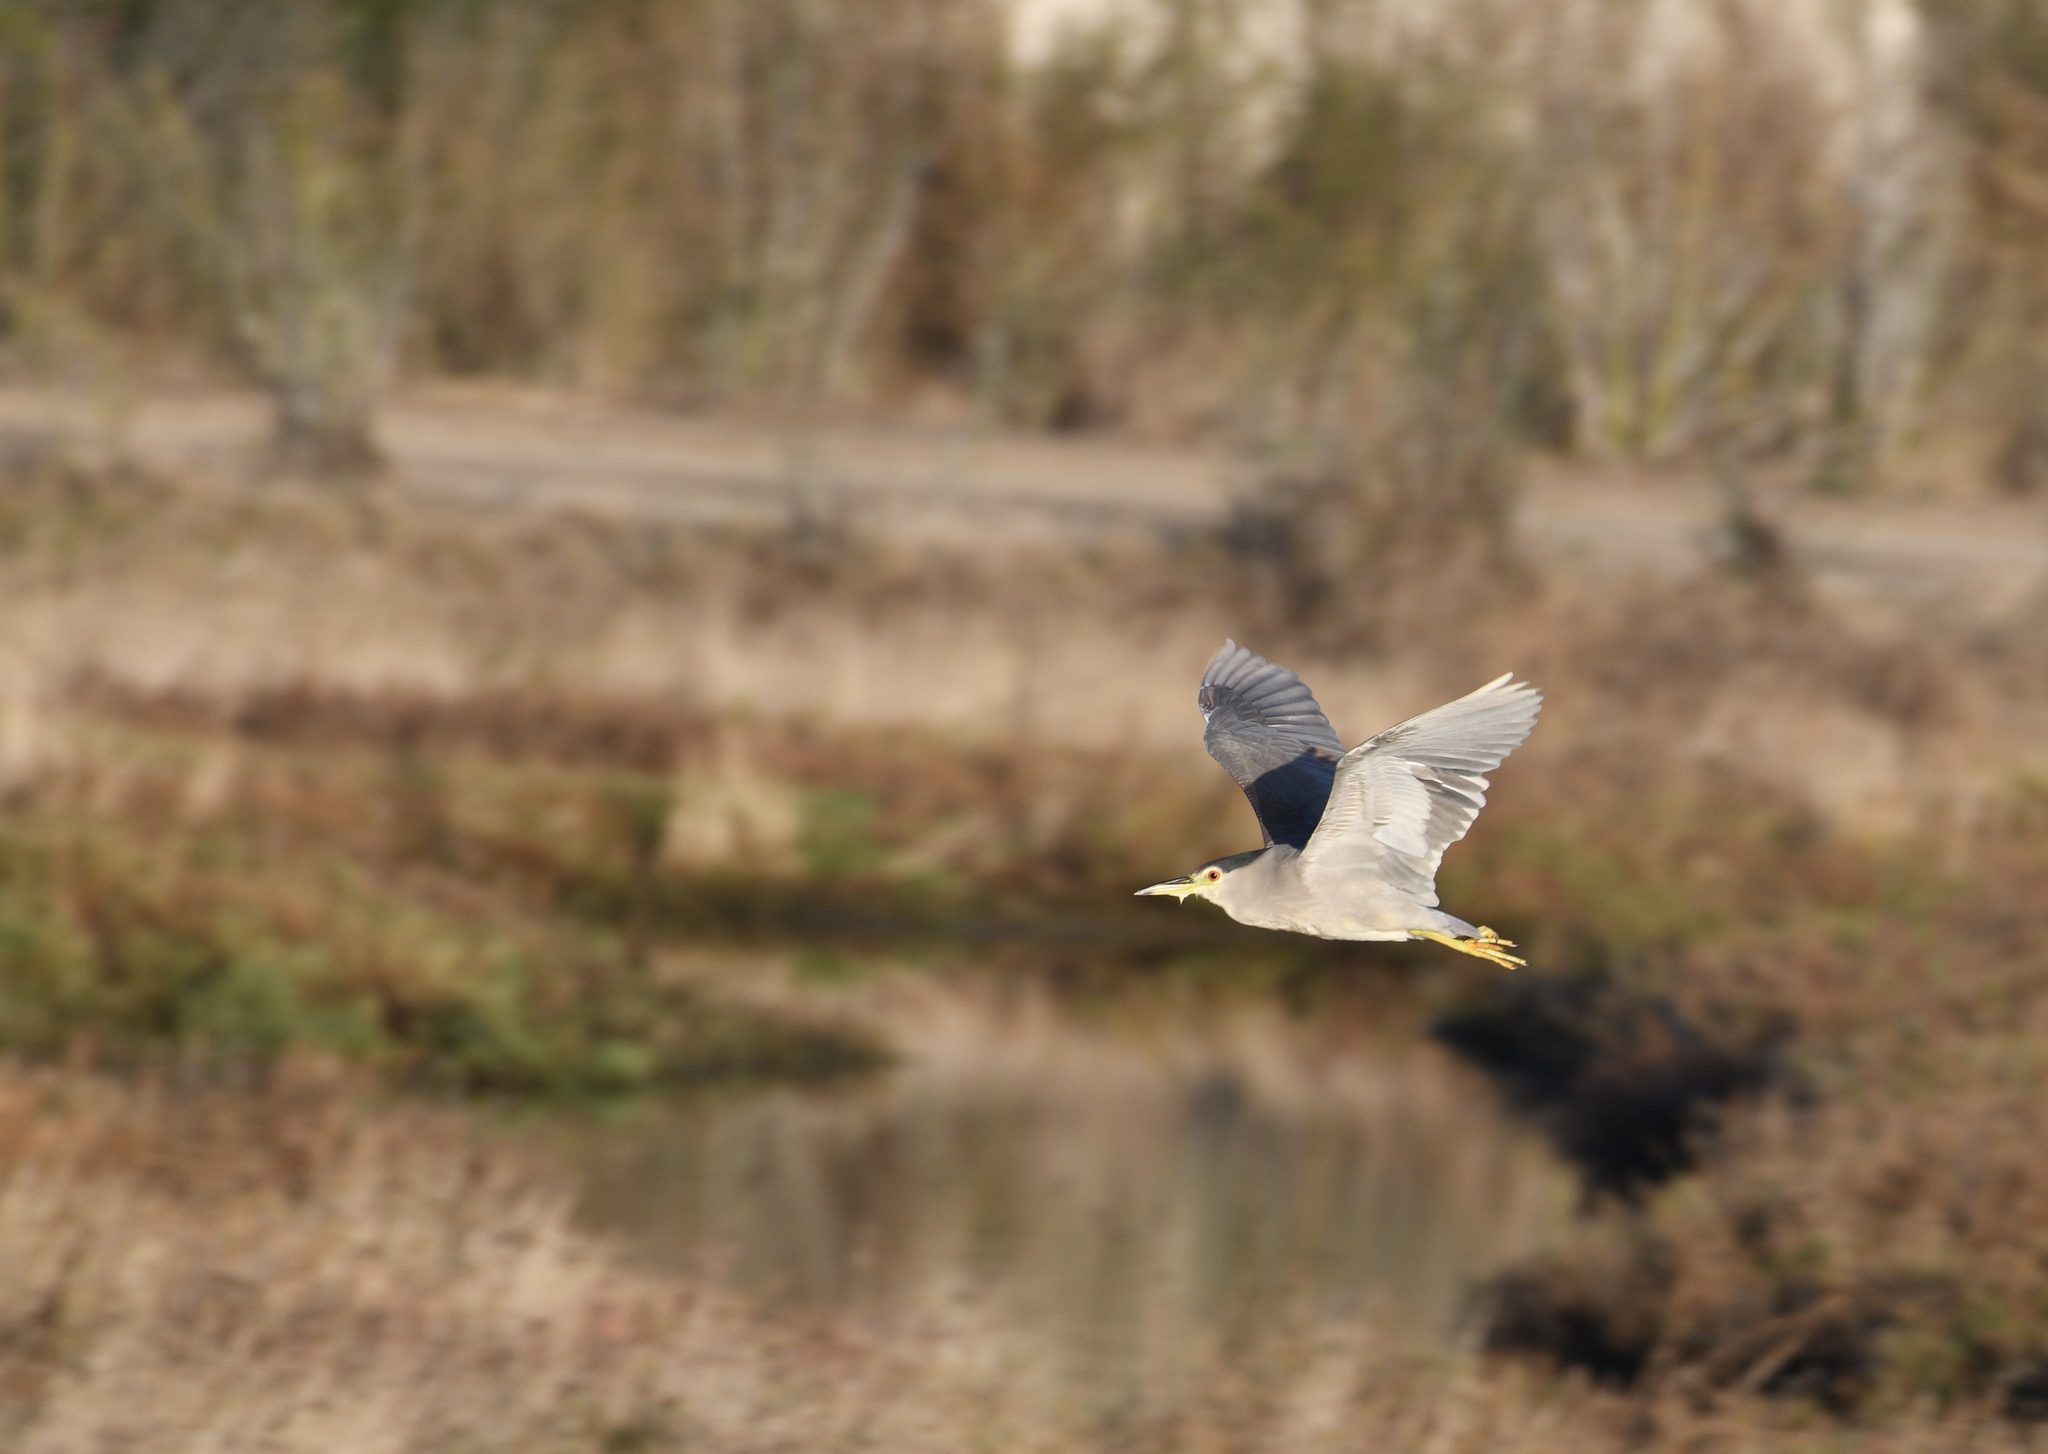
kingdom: Animalia
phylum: Chordata
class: Aves
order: Pelecaniformes
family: Ardeidae
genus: Nycticorax
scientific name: Nycticorax nycticorax
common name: Black-crowned night heron
